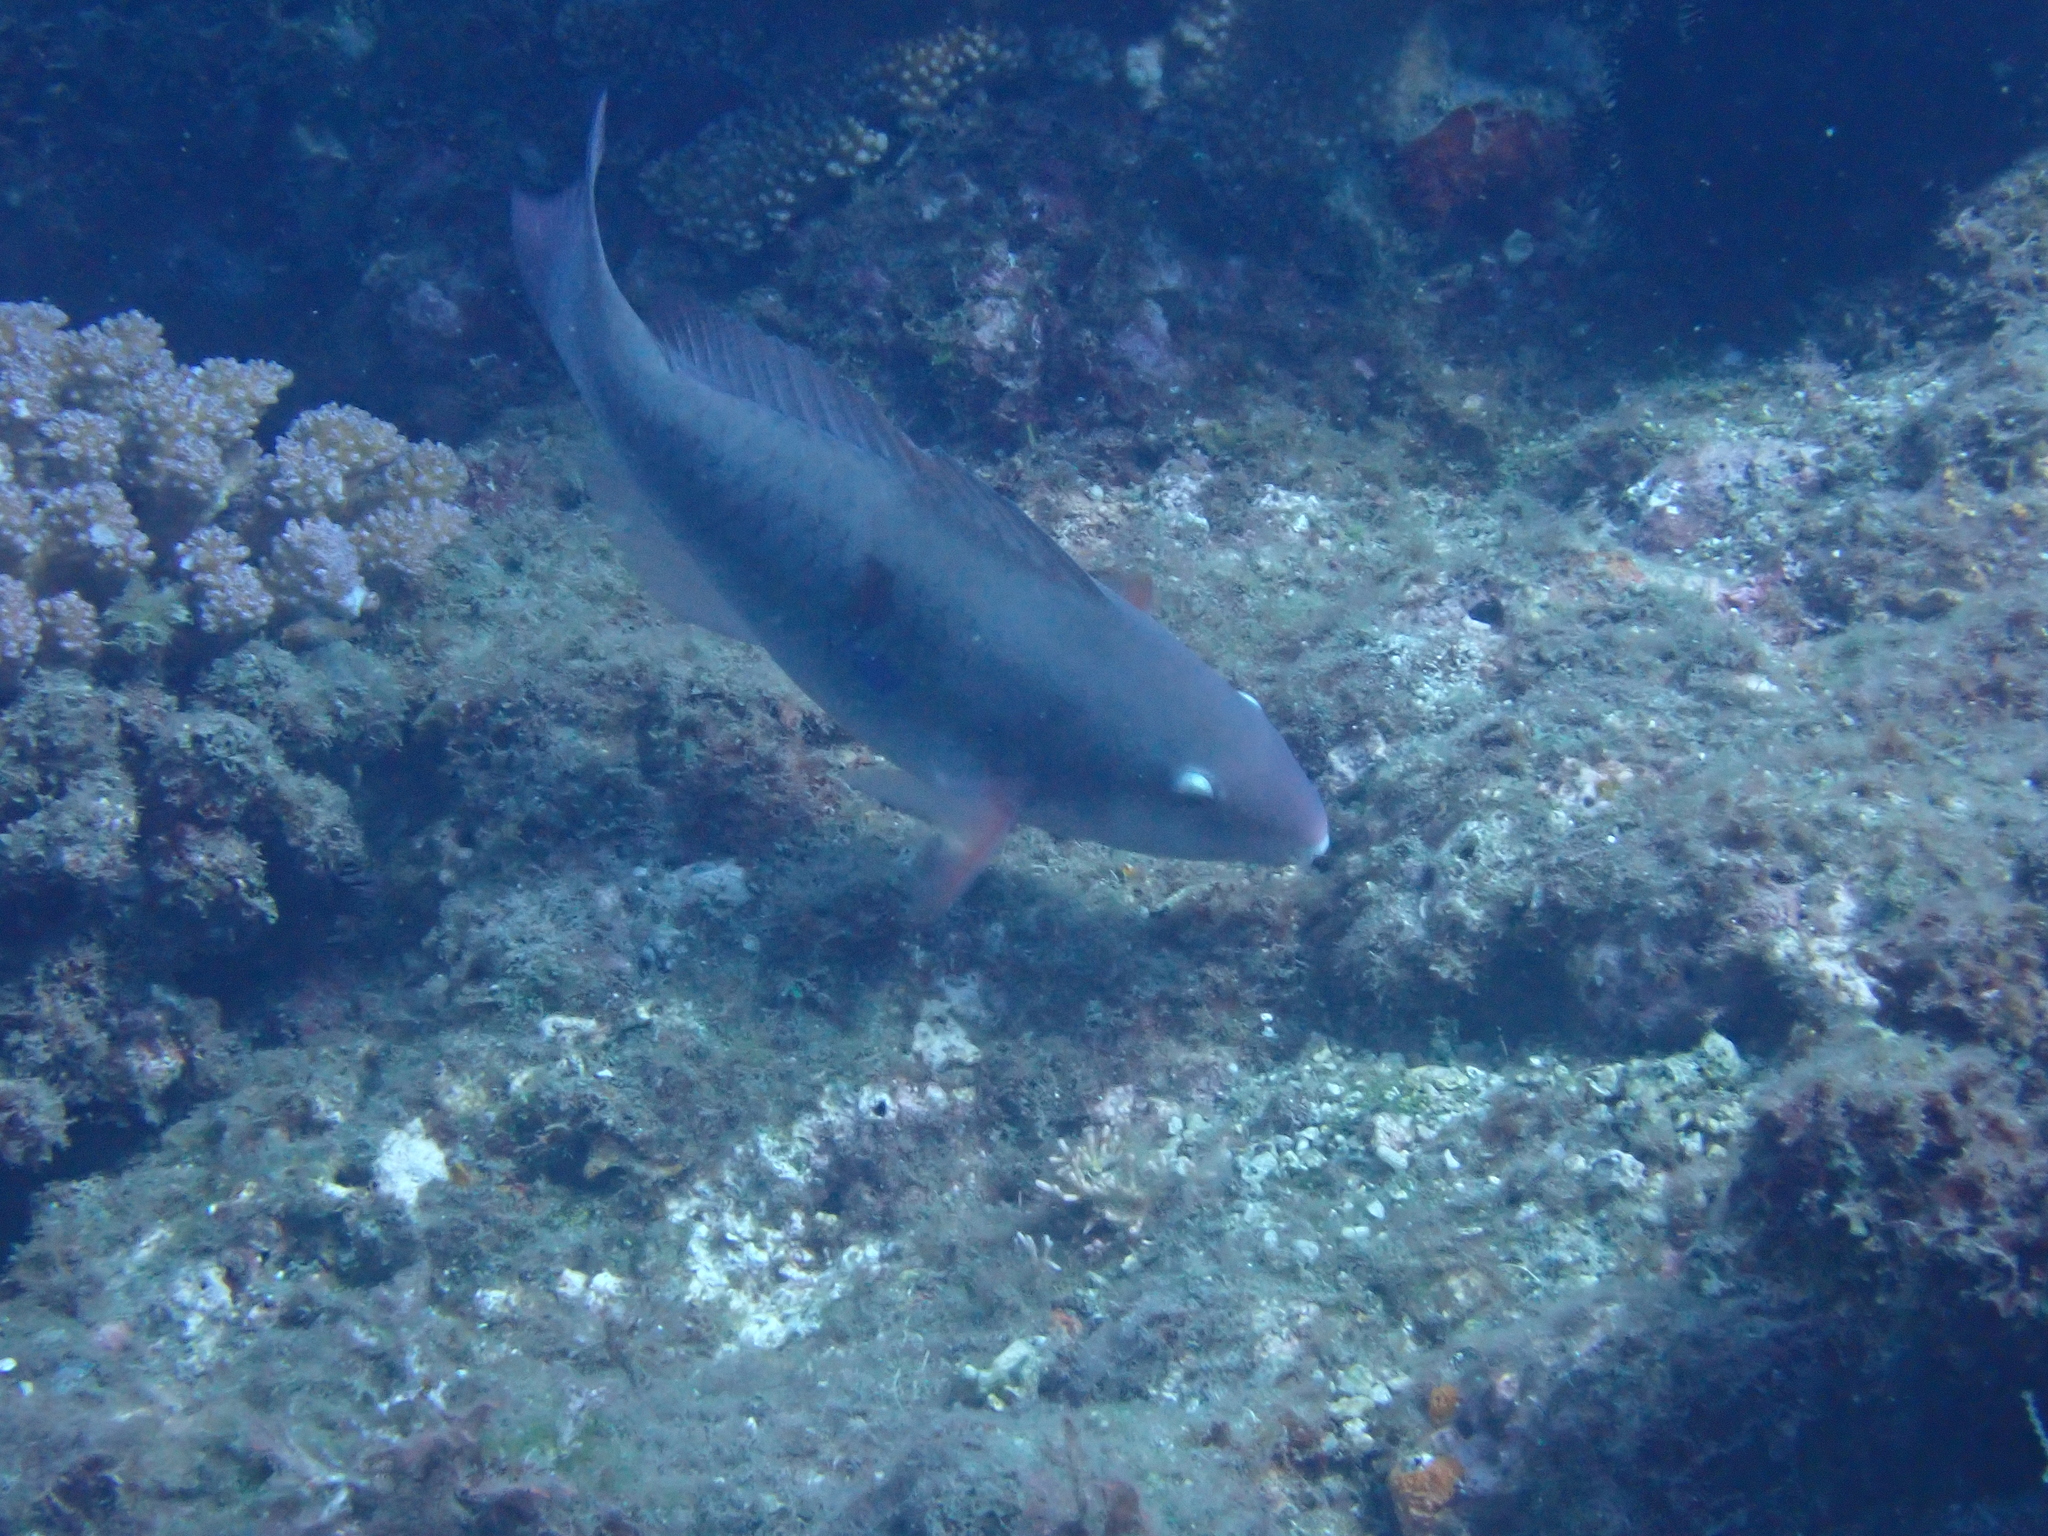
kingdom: Animalia
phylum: Chordata
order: Perciformes
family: Scaridae
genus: Scarus
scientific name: Scarus forsteni
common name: Forsten's parrotfish
